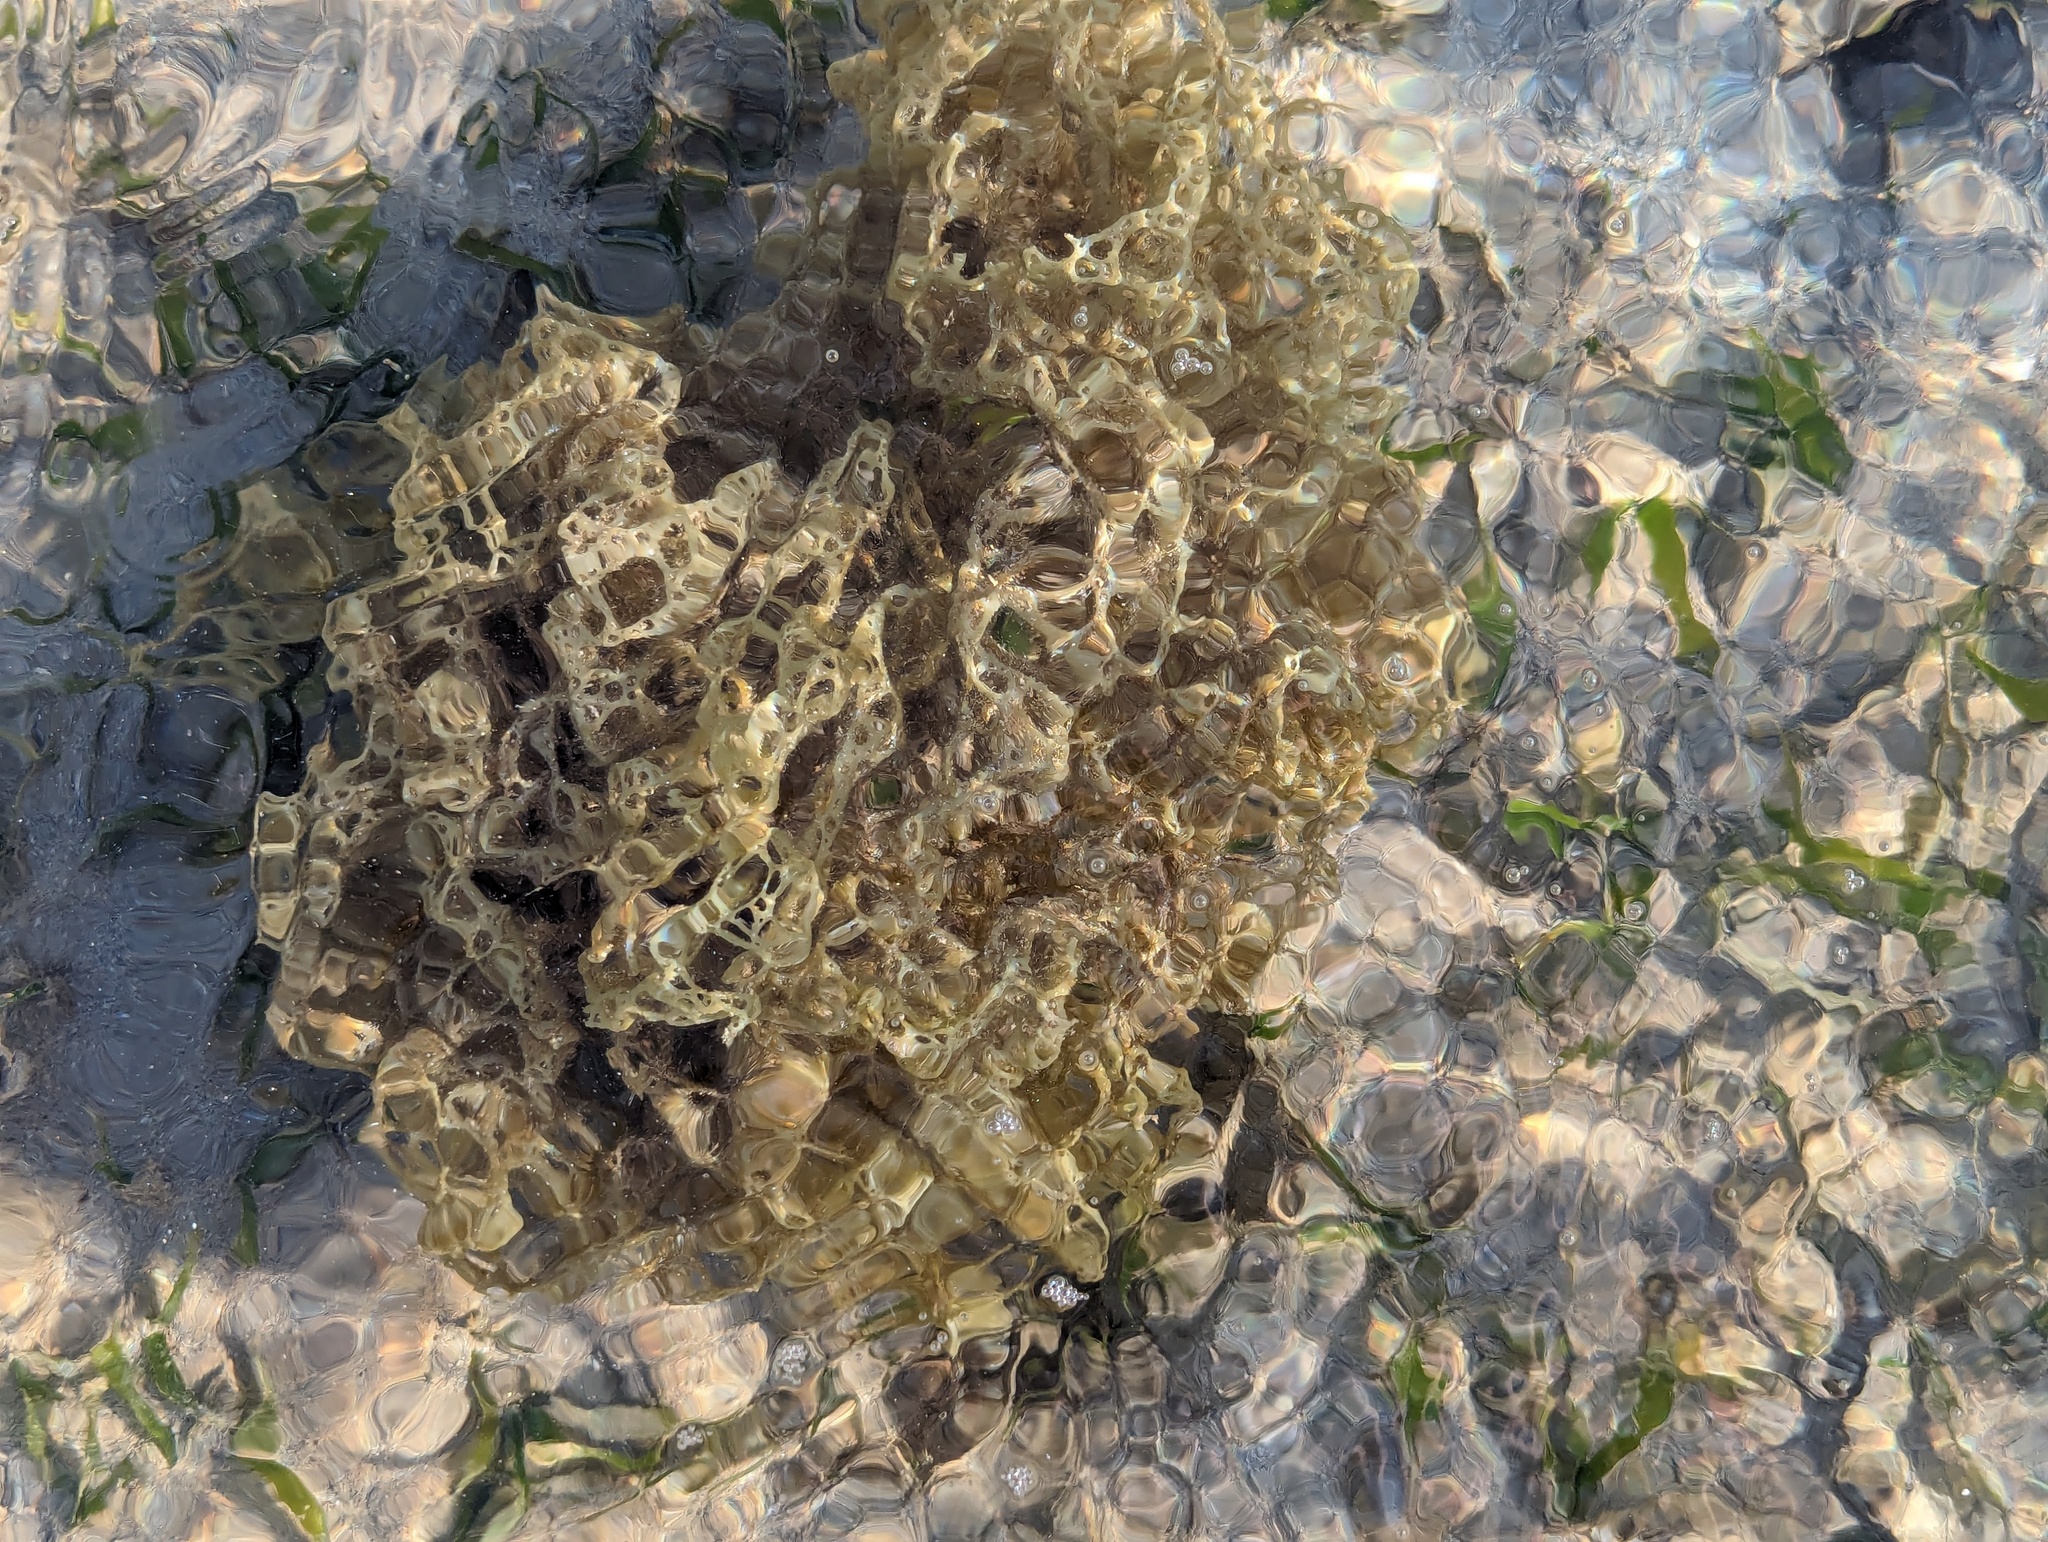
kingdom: Chromista
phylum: Ochrophyta
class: Phaeophyceae
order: Scytosiphonales
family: Scytosiphonaceae
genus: Hydroclathrus
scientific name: Hydroclathrus clathratus
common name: Swiss cheese algae
